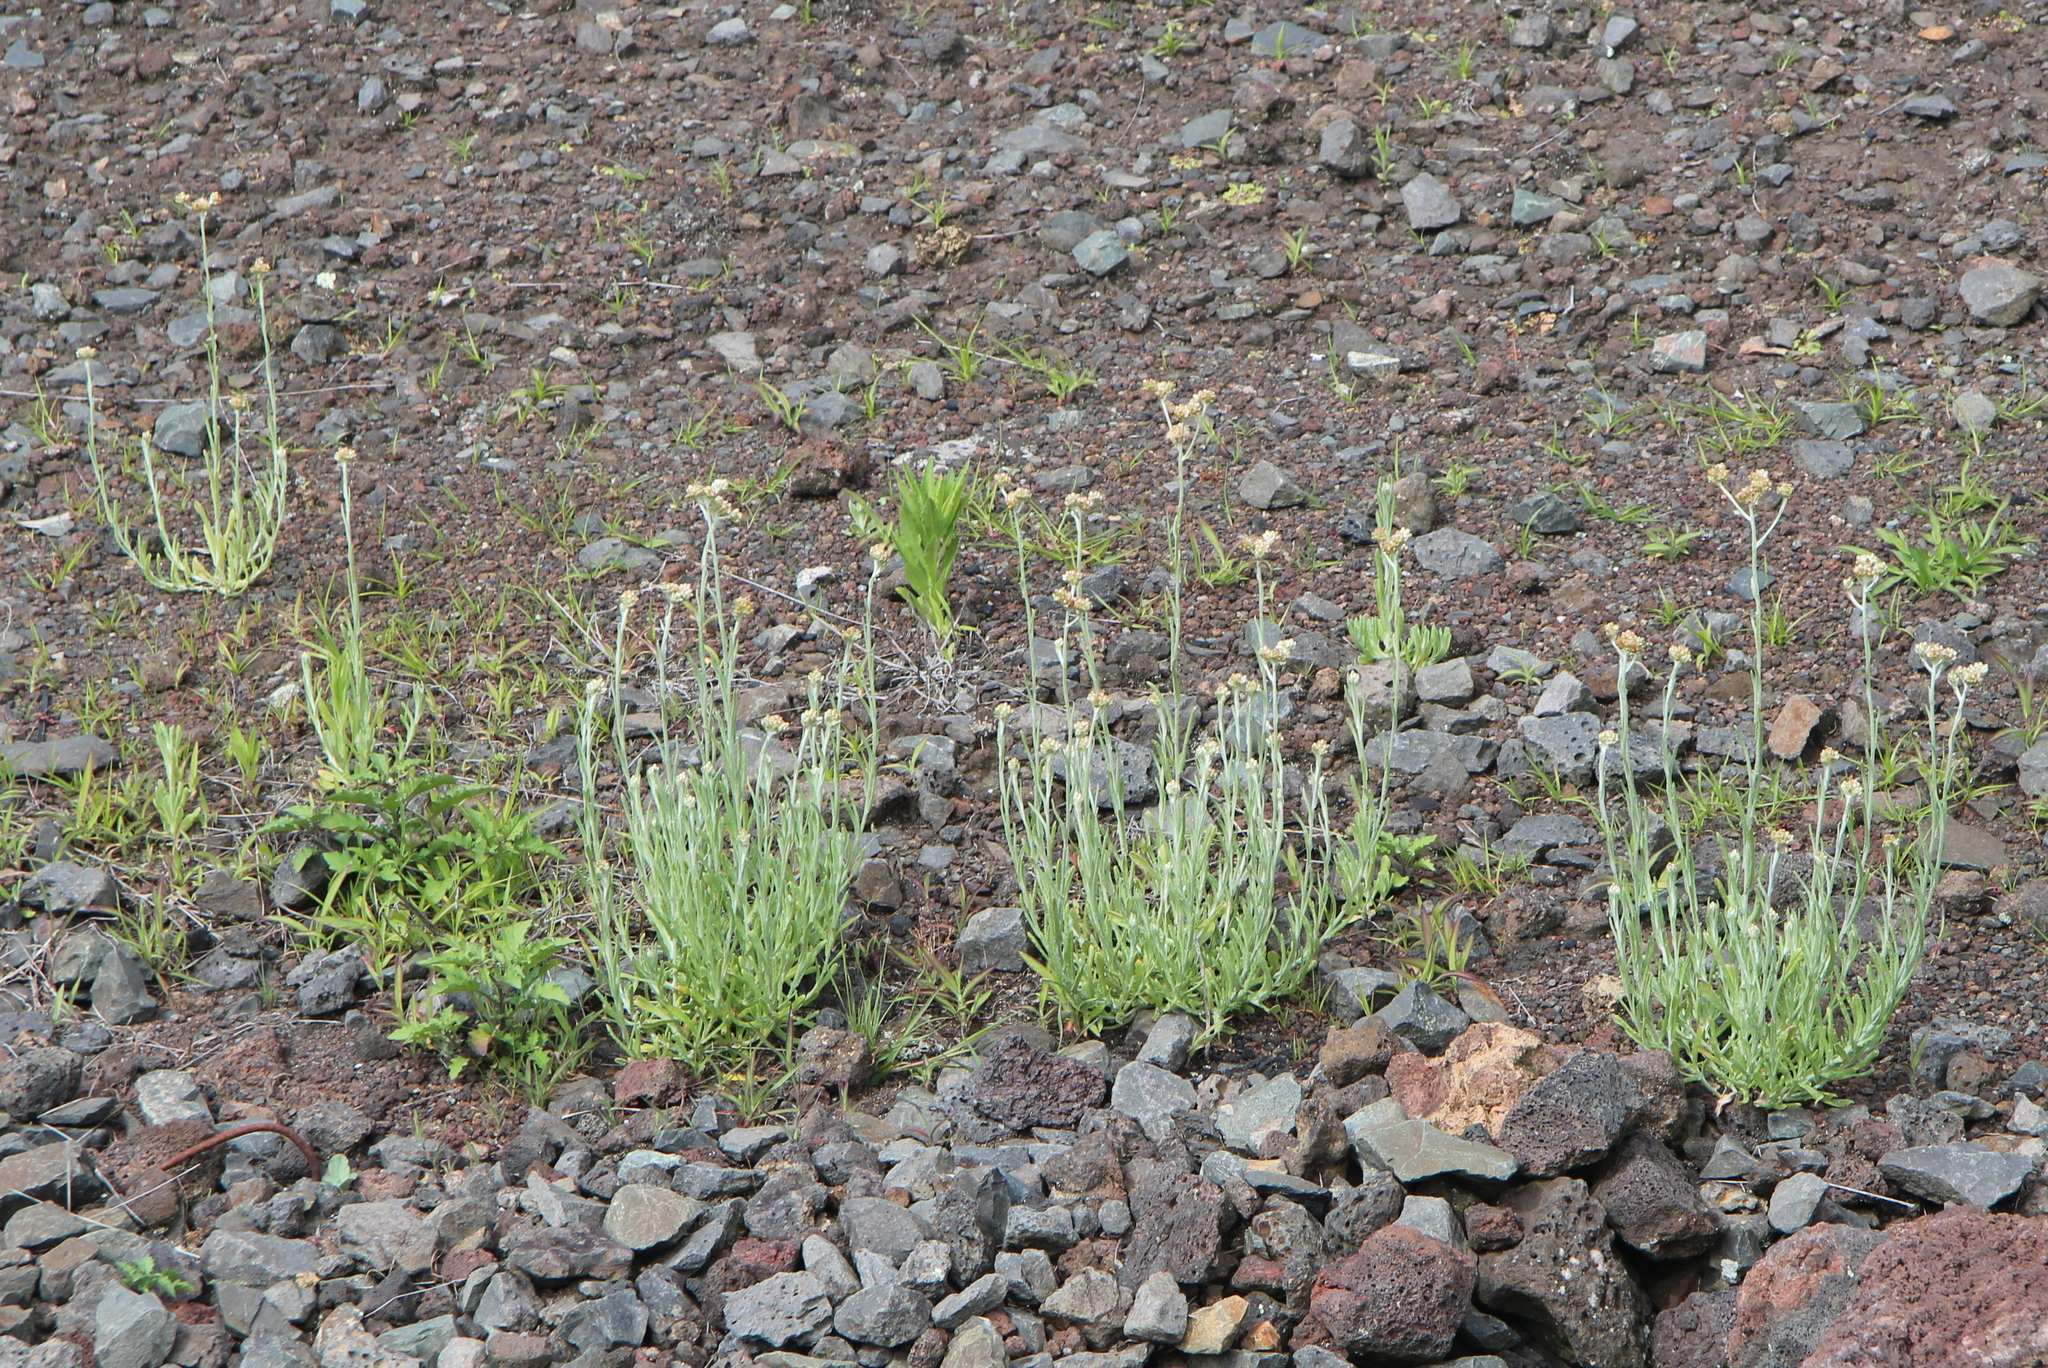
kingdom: Plantae
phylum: Tracheophyta
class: Magnoliopsida
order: Asterales
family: Asteraceae
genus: Helichrysum
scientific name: Helichrysum luteoalbum
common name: Daisy
